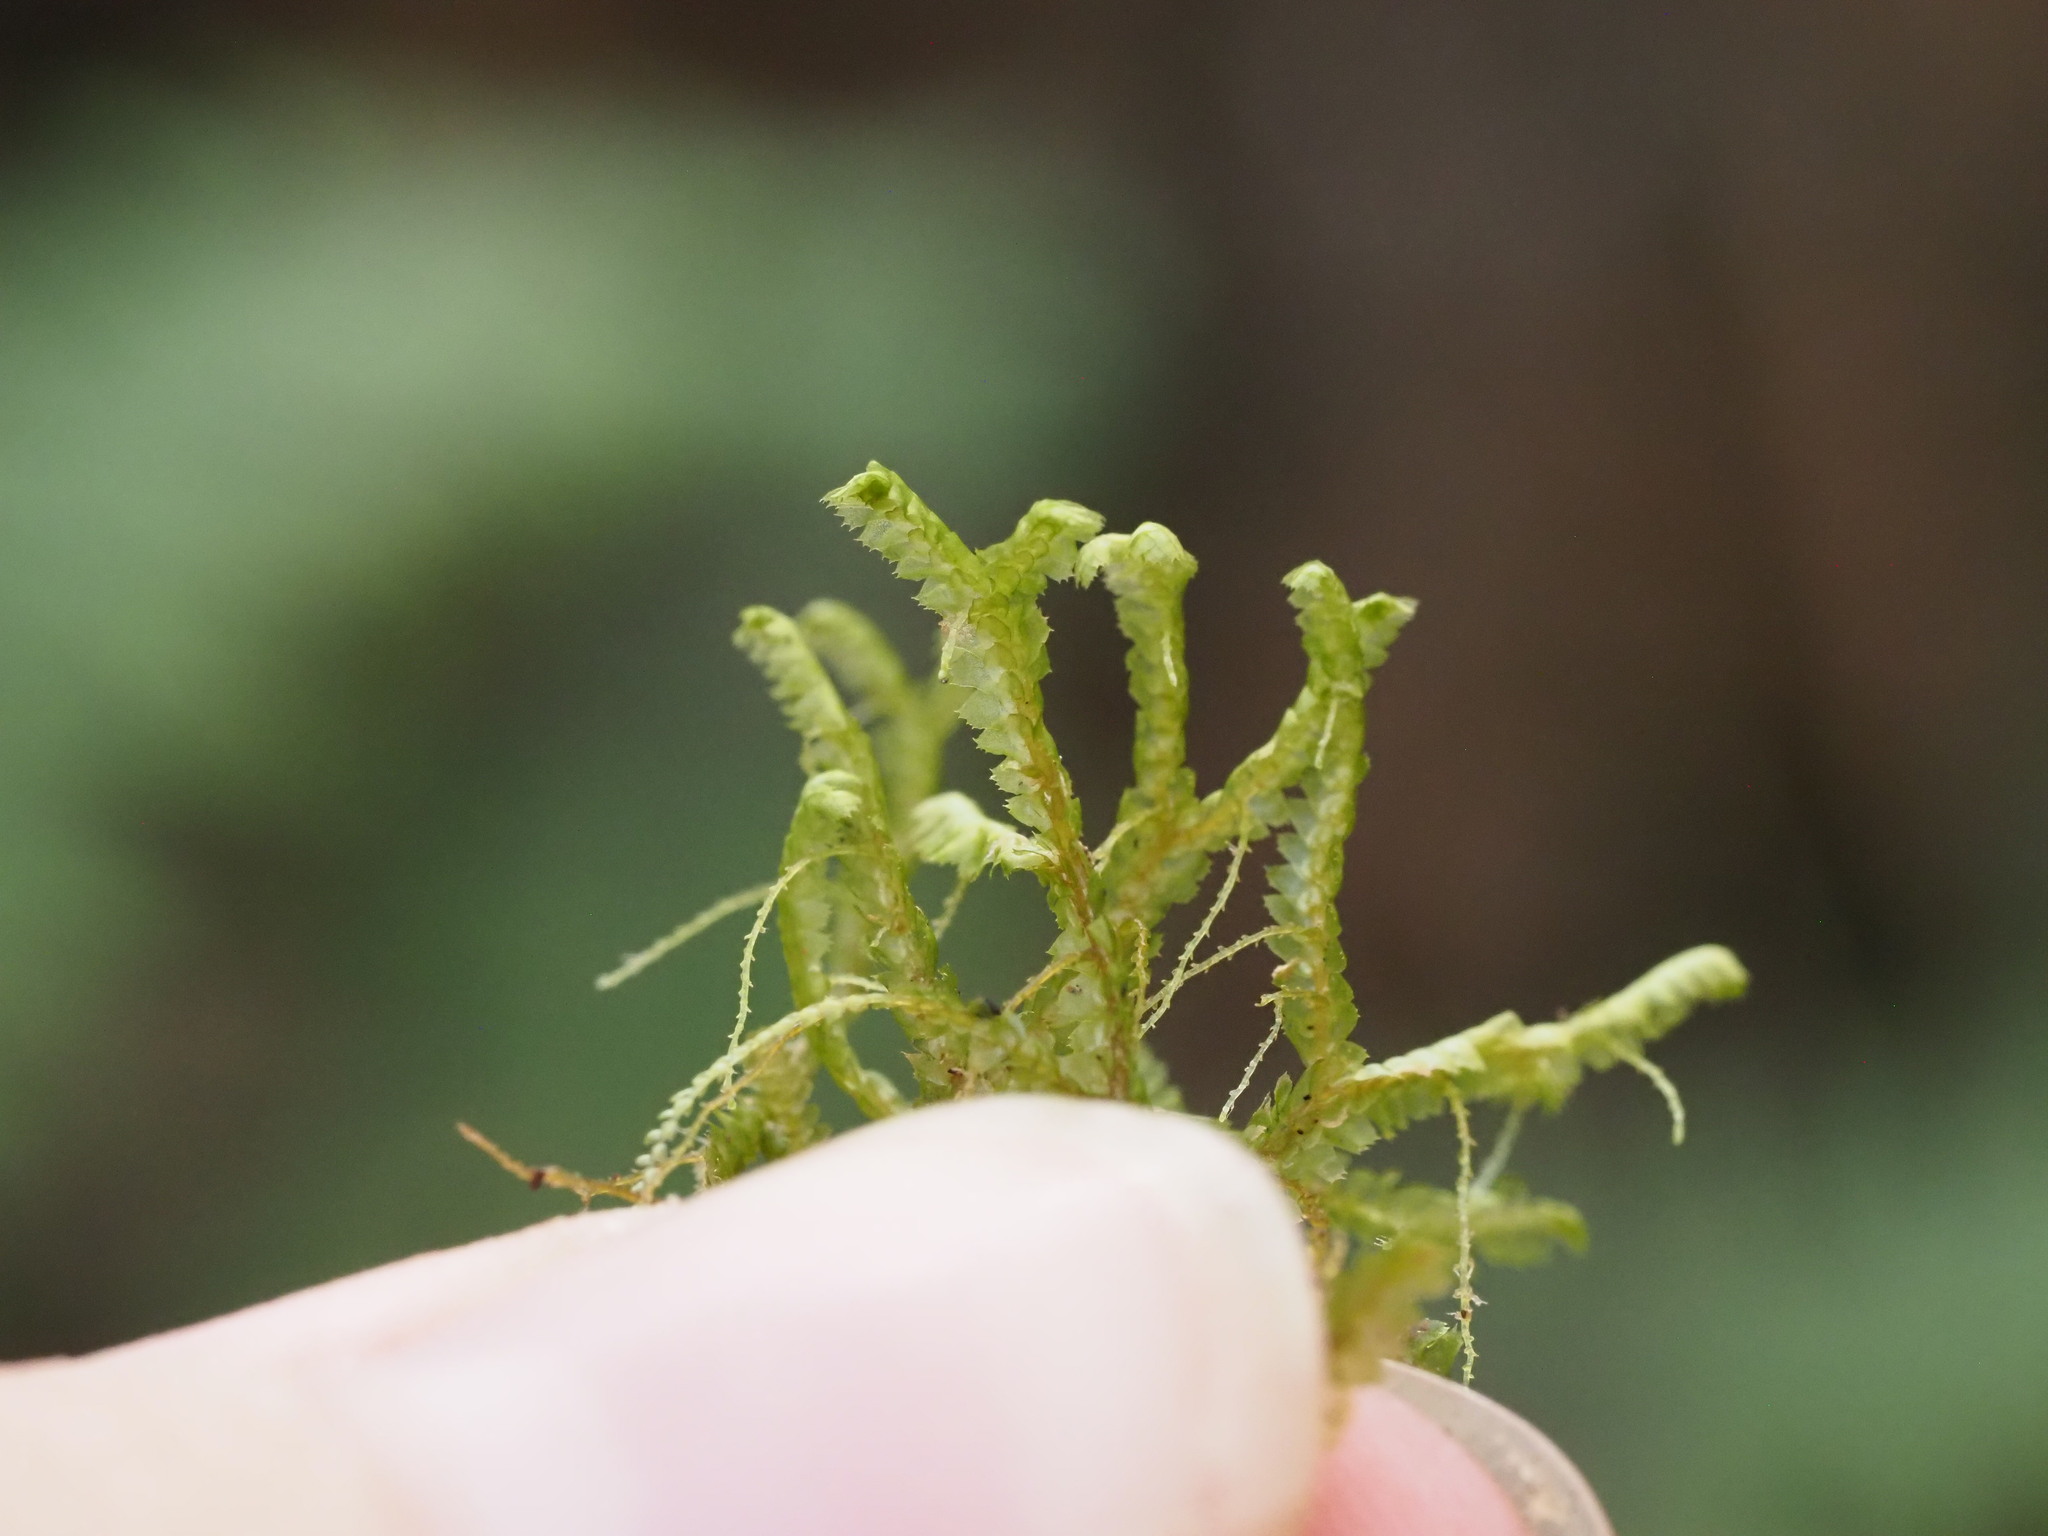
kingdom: Plantae
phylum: Marchantiophyta
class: Jungermanniopsida
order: Jungermanniales
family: Lepidoziaceae
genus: Bazzania
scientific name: Bazzania praerupta
